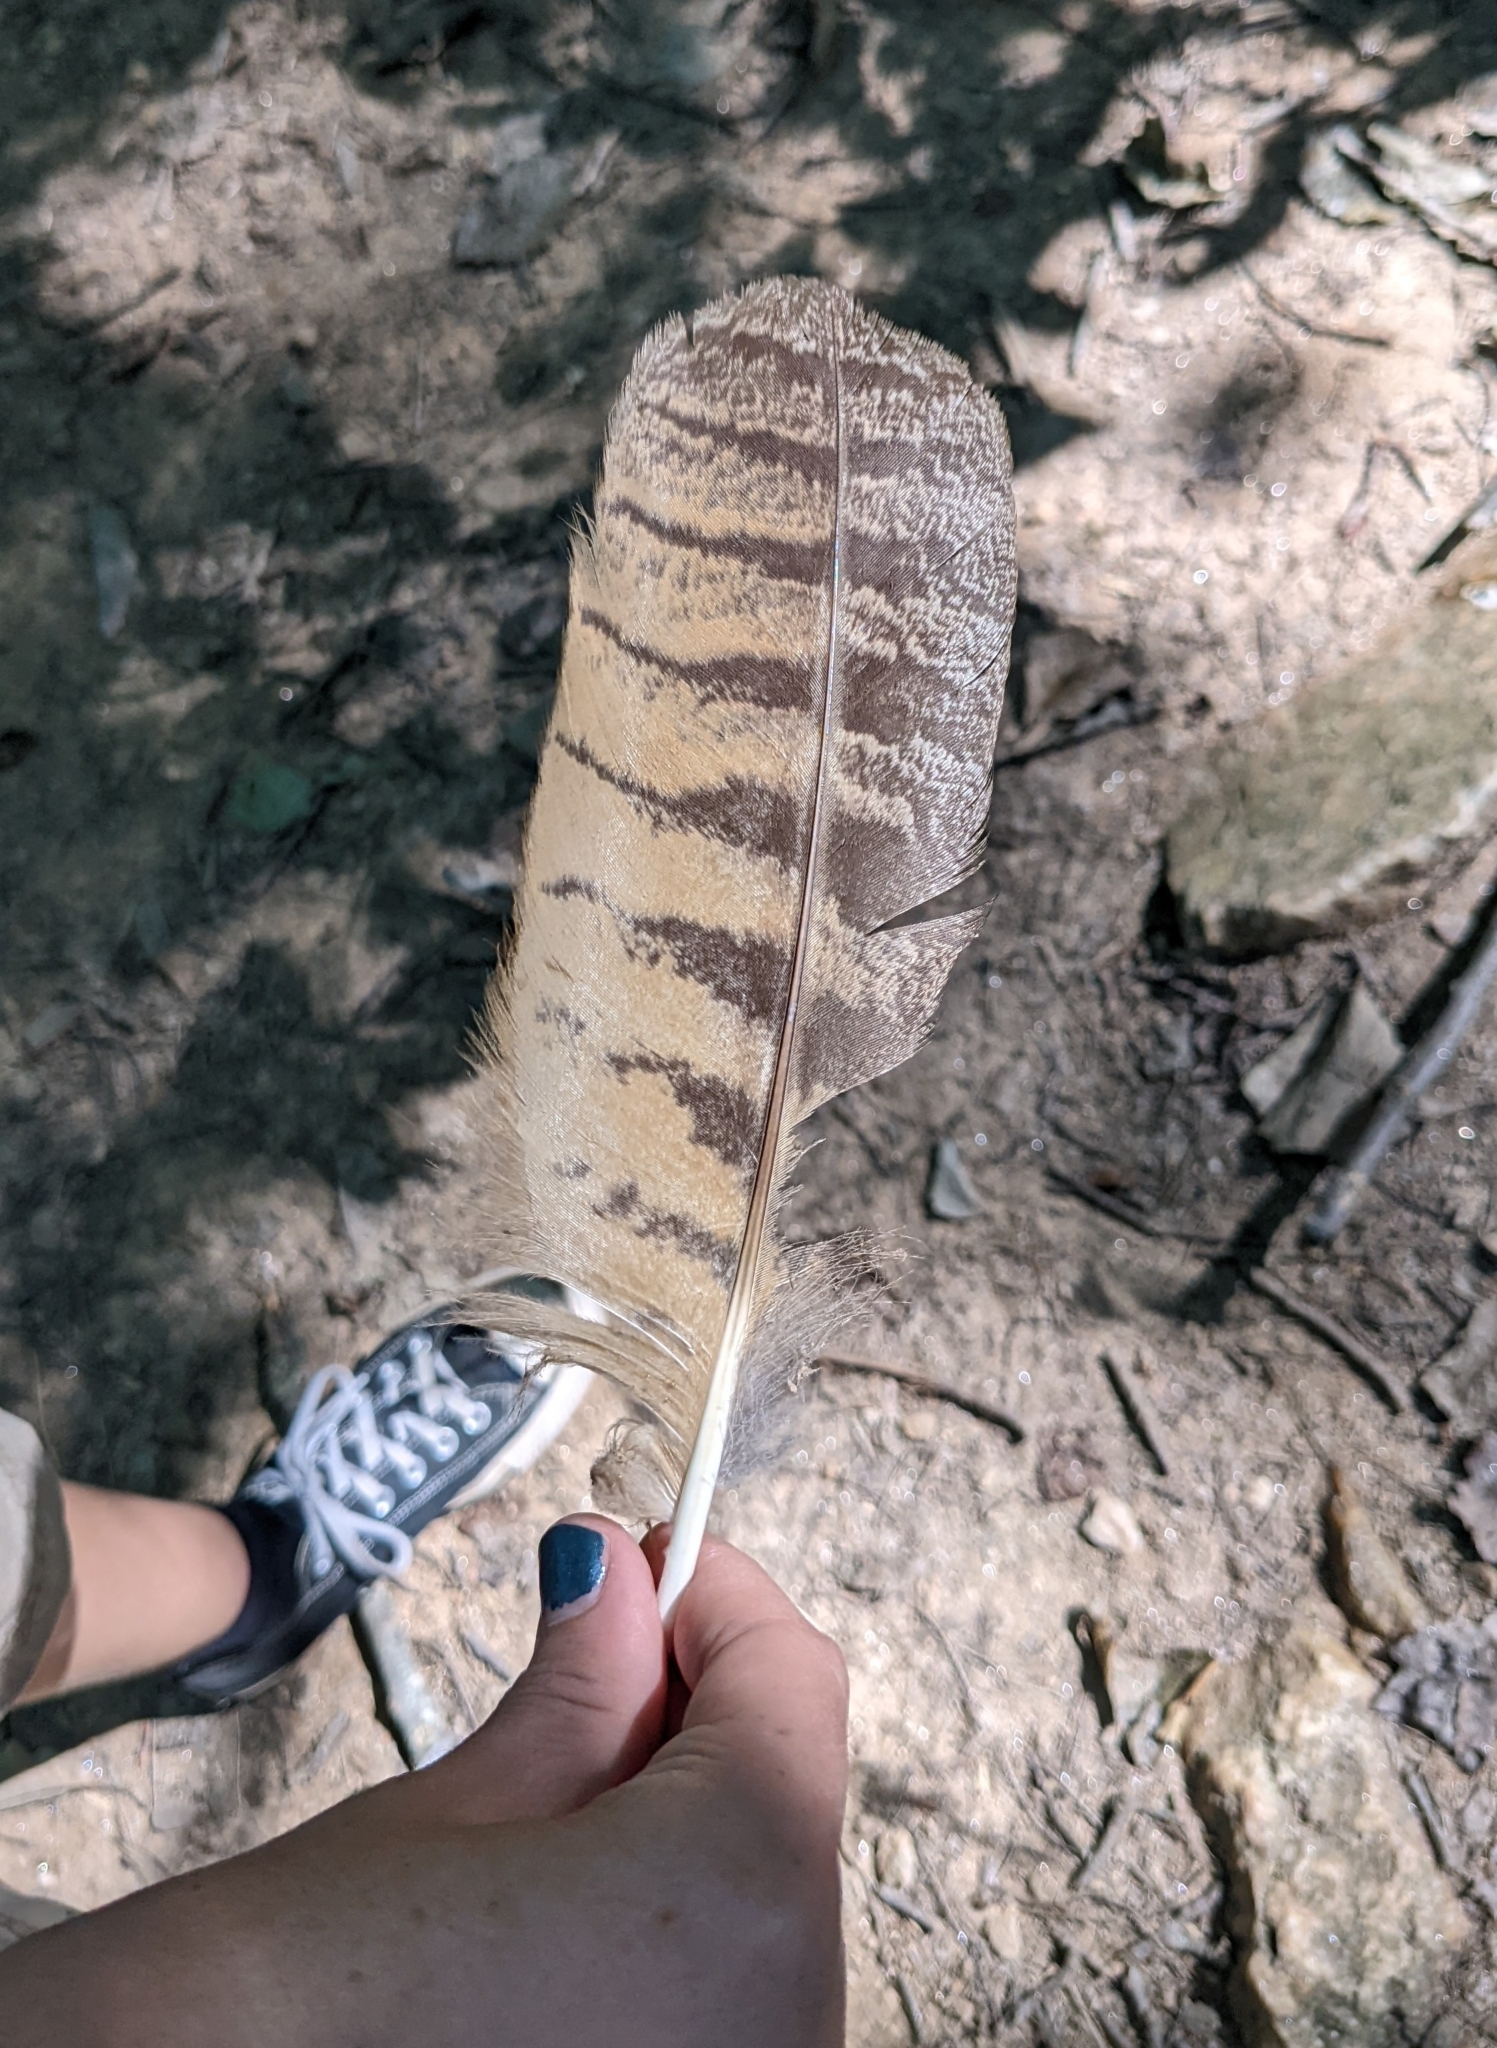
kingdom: Animalia
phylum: Chordata
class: Aves
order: Strigiformes
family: Strigidae
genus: Bubo
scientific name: Bubo virginianus
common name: Great horned owl
